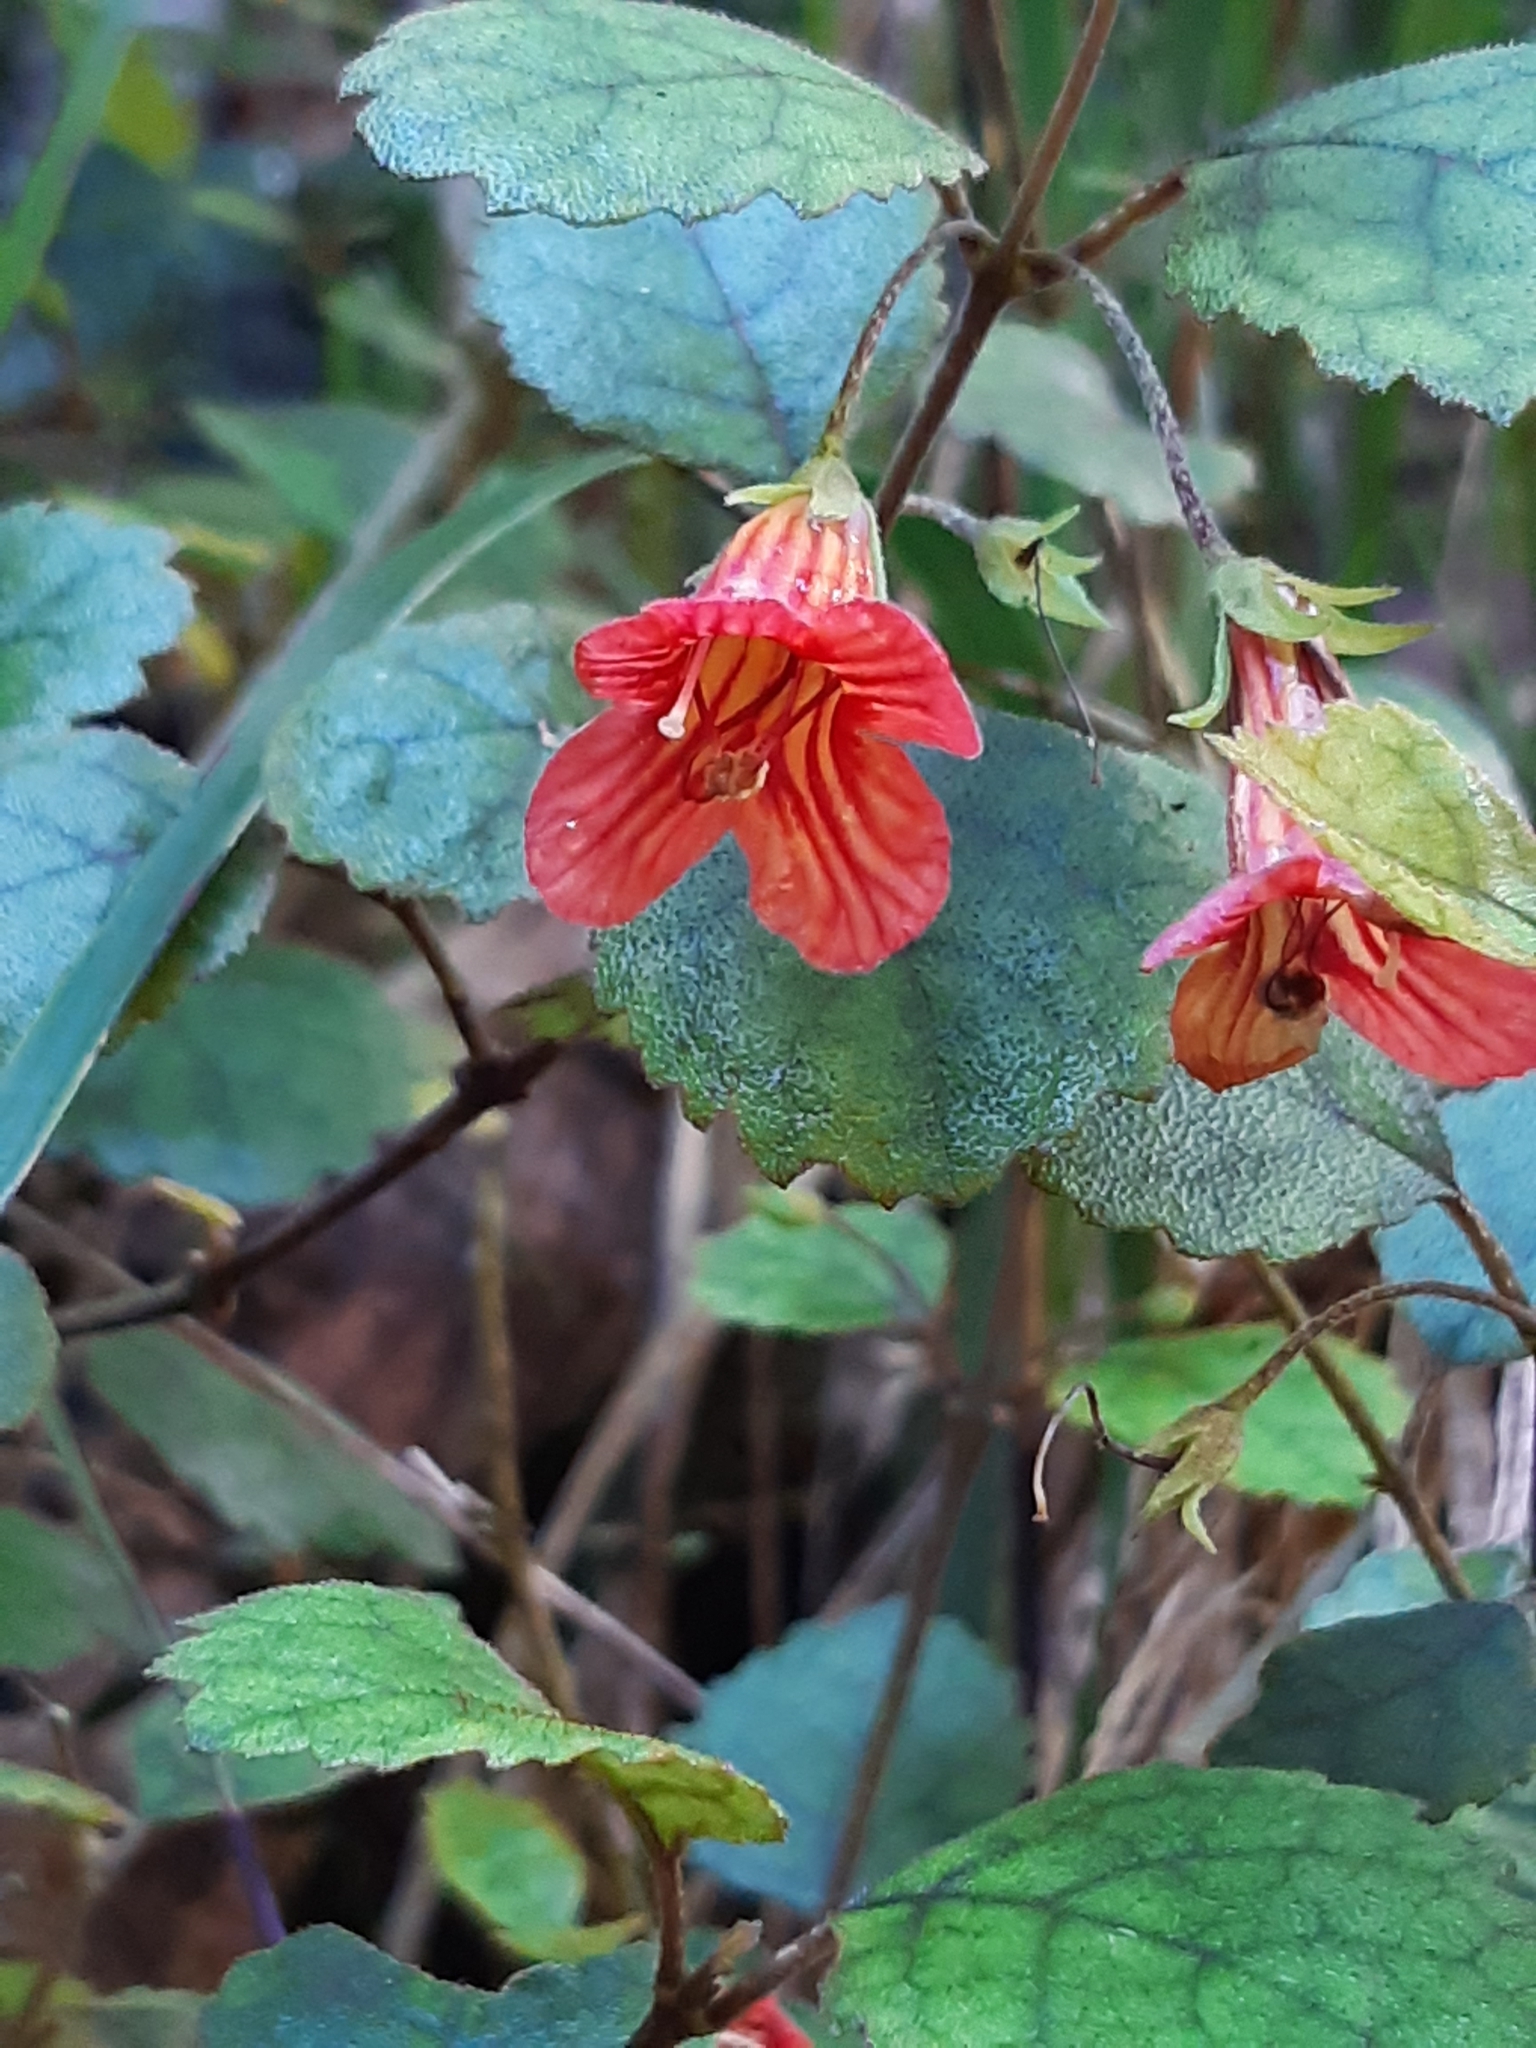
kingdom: Plantae
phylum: Tracheophyta
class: Magnoliopsida
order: Lamiales
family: Gesneriaceae
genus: Rhabdothamnus
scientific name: Rhabdothamnus solandri
